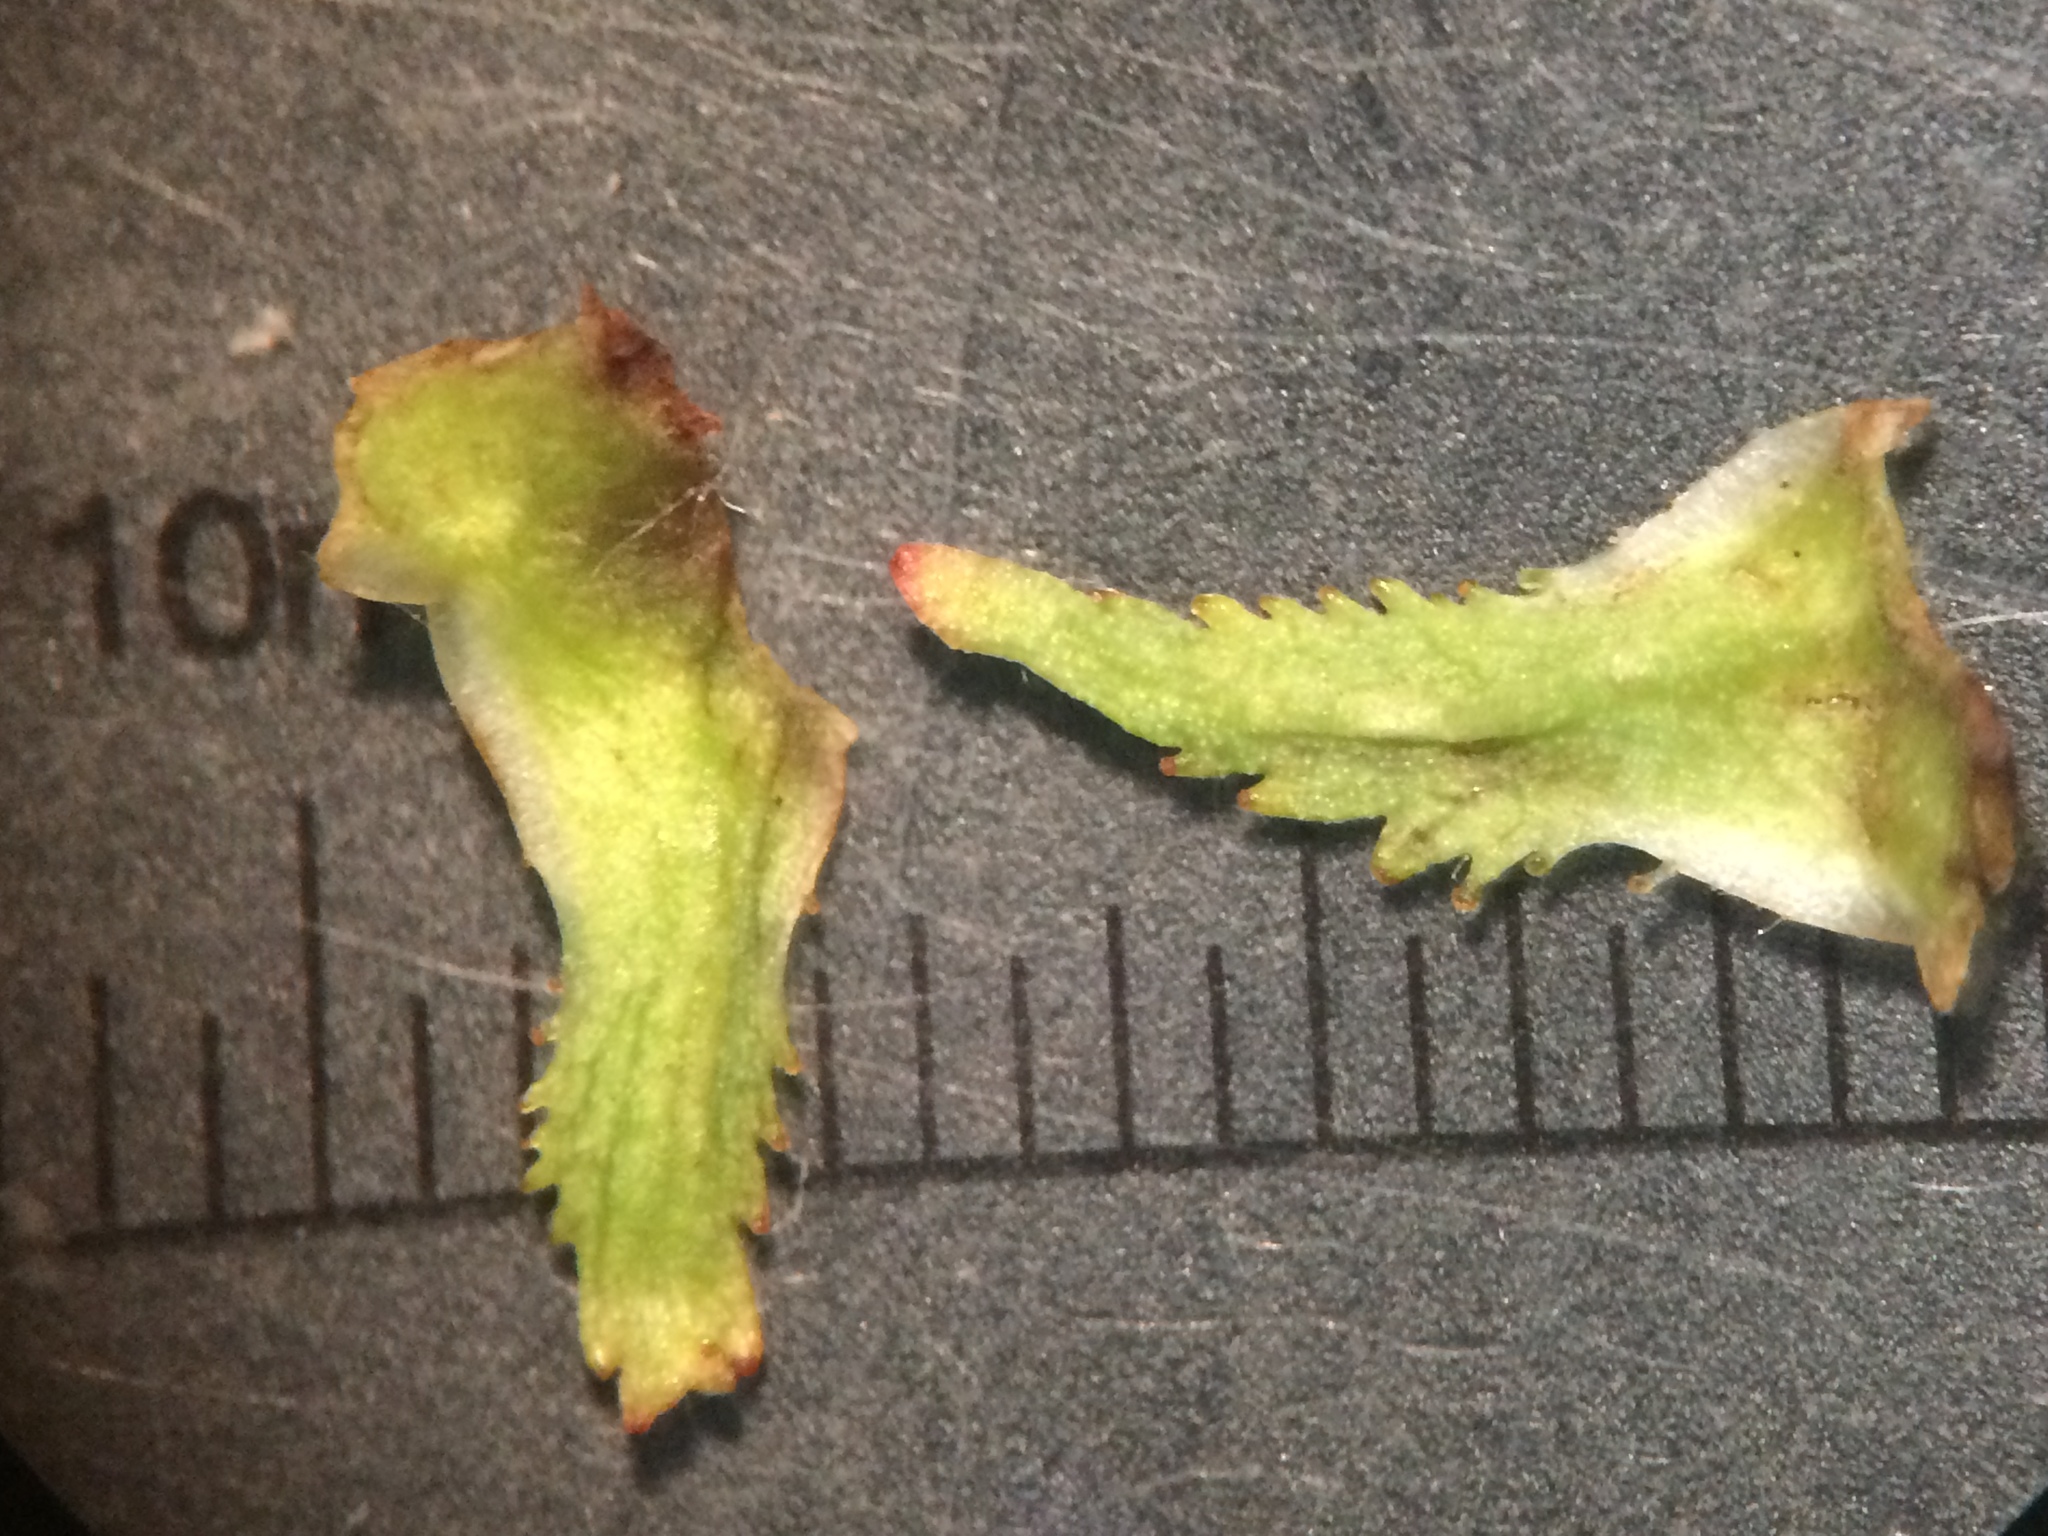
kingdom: Plantae
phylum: Tracheophyta
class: Magnoliopsida
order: Rosales
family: Rosaceae
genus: Crataegus
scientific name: Crataegus macracantha
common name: Large-thorn hawthorn
